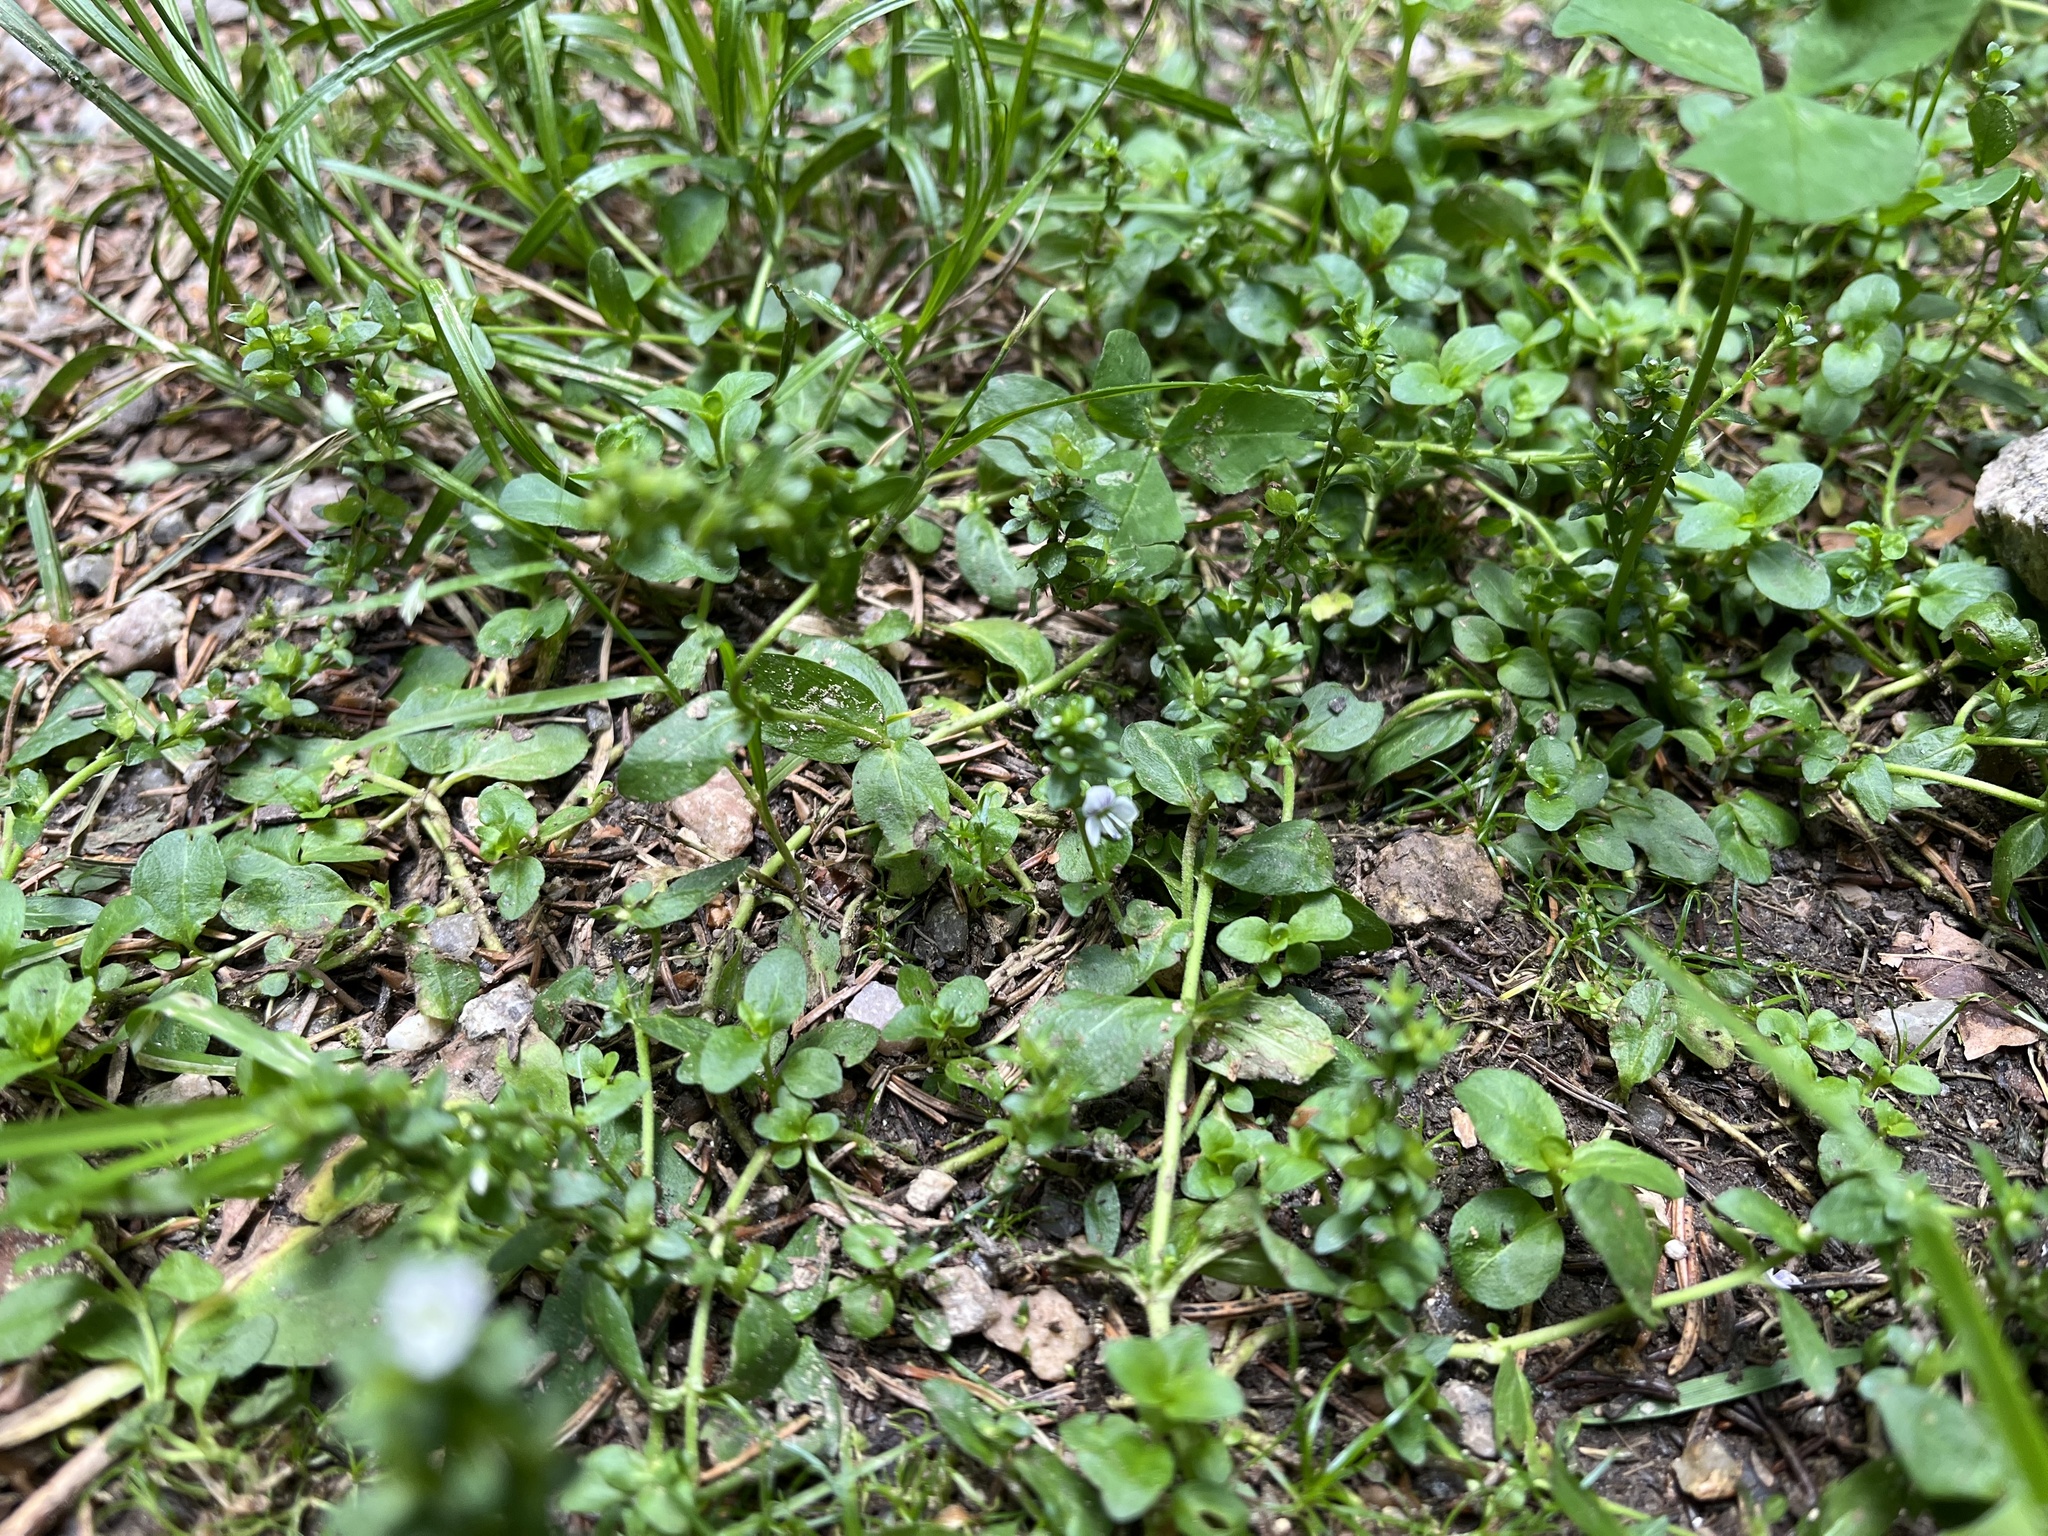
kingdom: Plantae
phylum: Tracheophyta
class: Magnoliopsida
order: Lamiales
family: Plantaginaceae
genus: Veronica
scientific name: Veronica serpyllifolia
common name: Thyme-leaved speedwell
